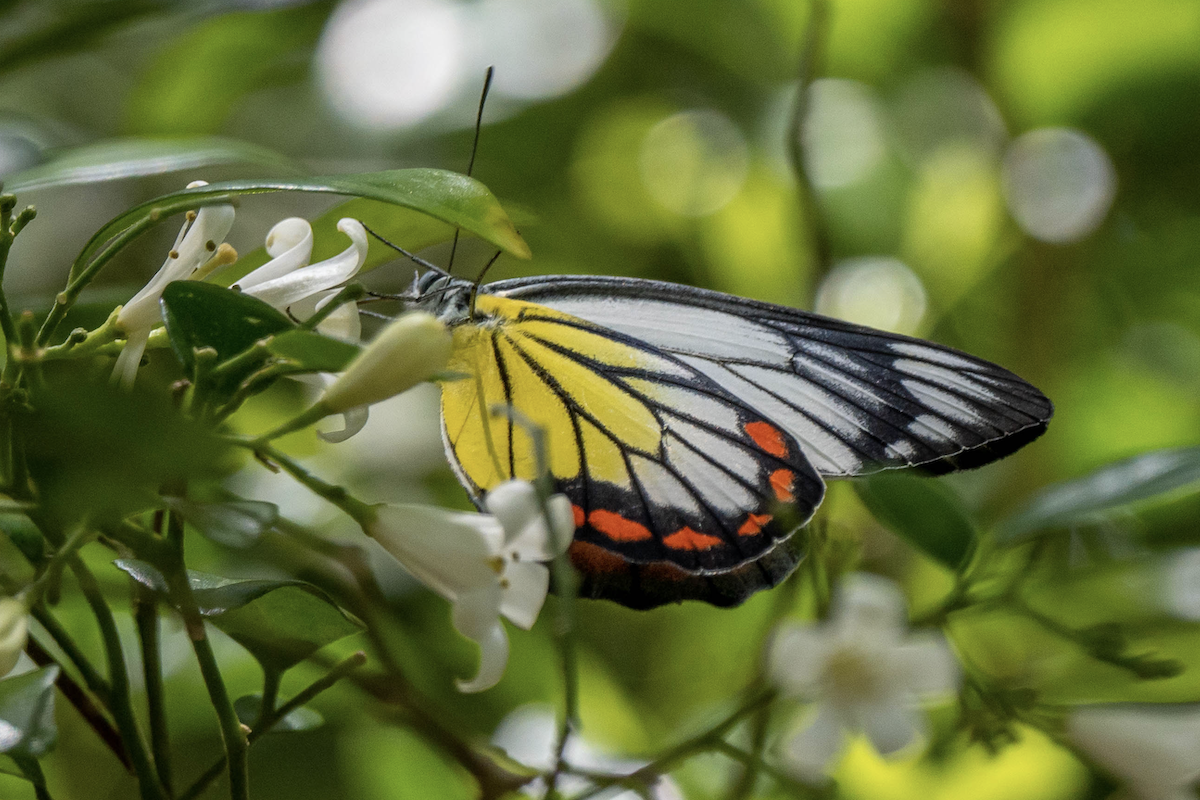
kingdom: Animalia
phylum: Arthropoda
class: Insecta
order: Lepidoptera
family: Pieridae
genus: Delias
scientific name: Delias hyparete
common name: Painted jezebel
